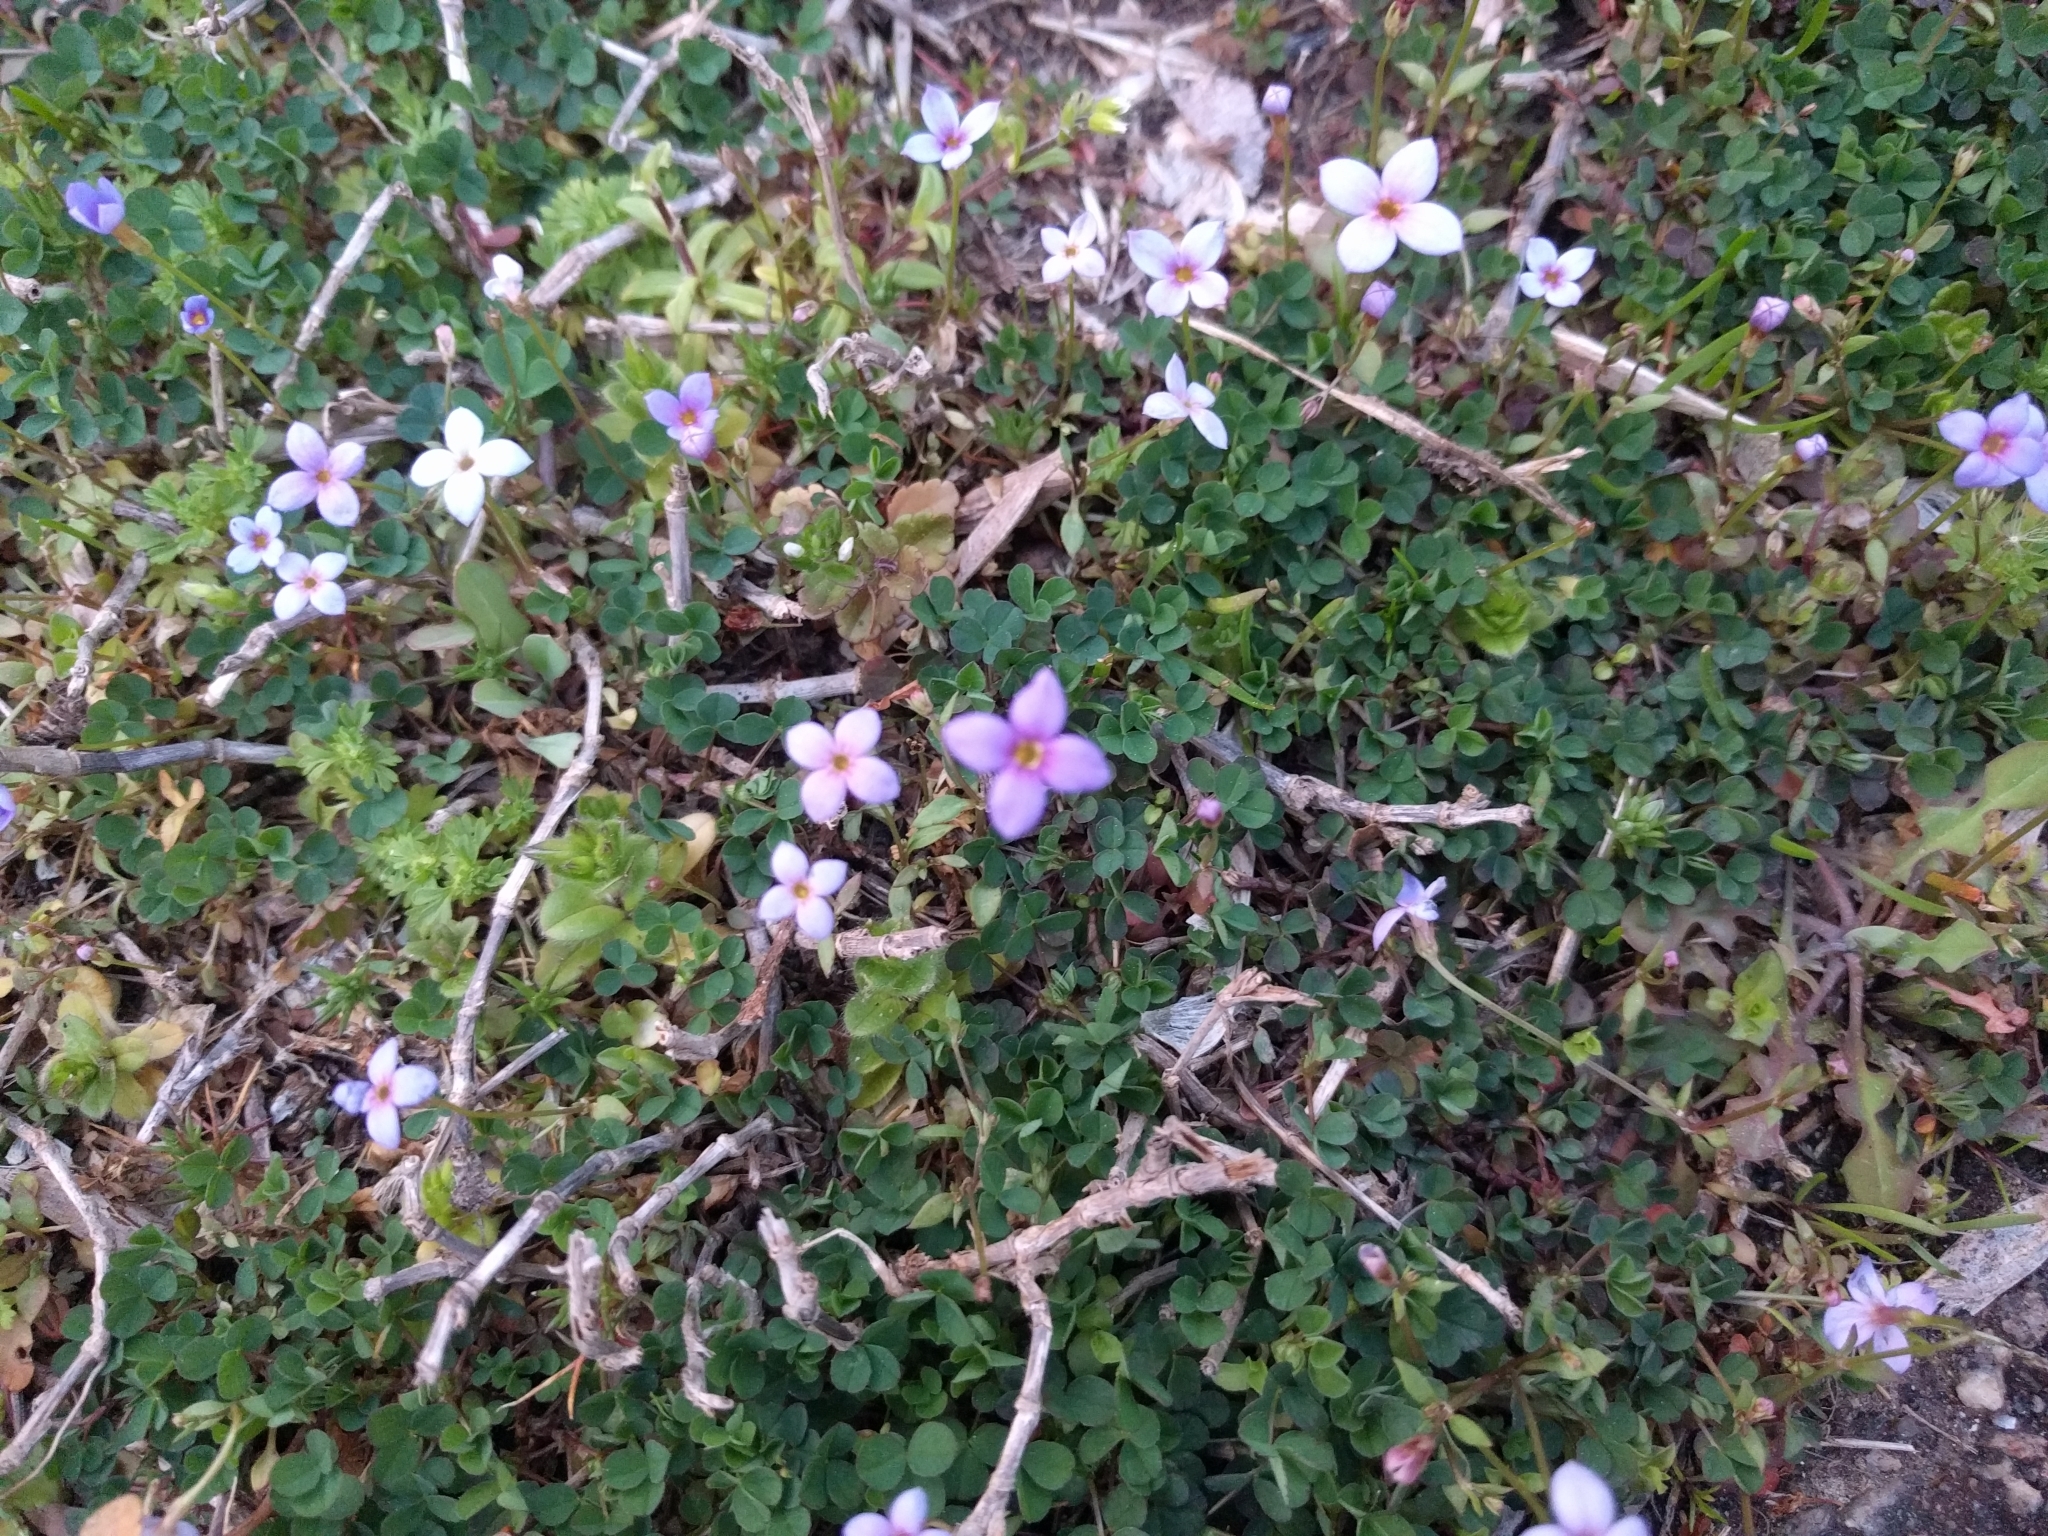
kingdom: Plantae
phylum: Tracheophyta
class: Magnoliopsida
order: Gentianales
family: Rubiaceae
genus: Houstonia
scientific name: Houstonia pusilla
